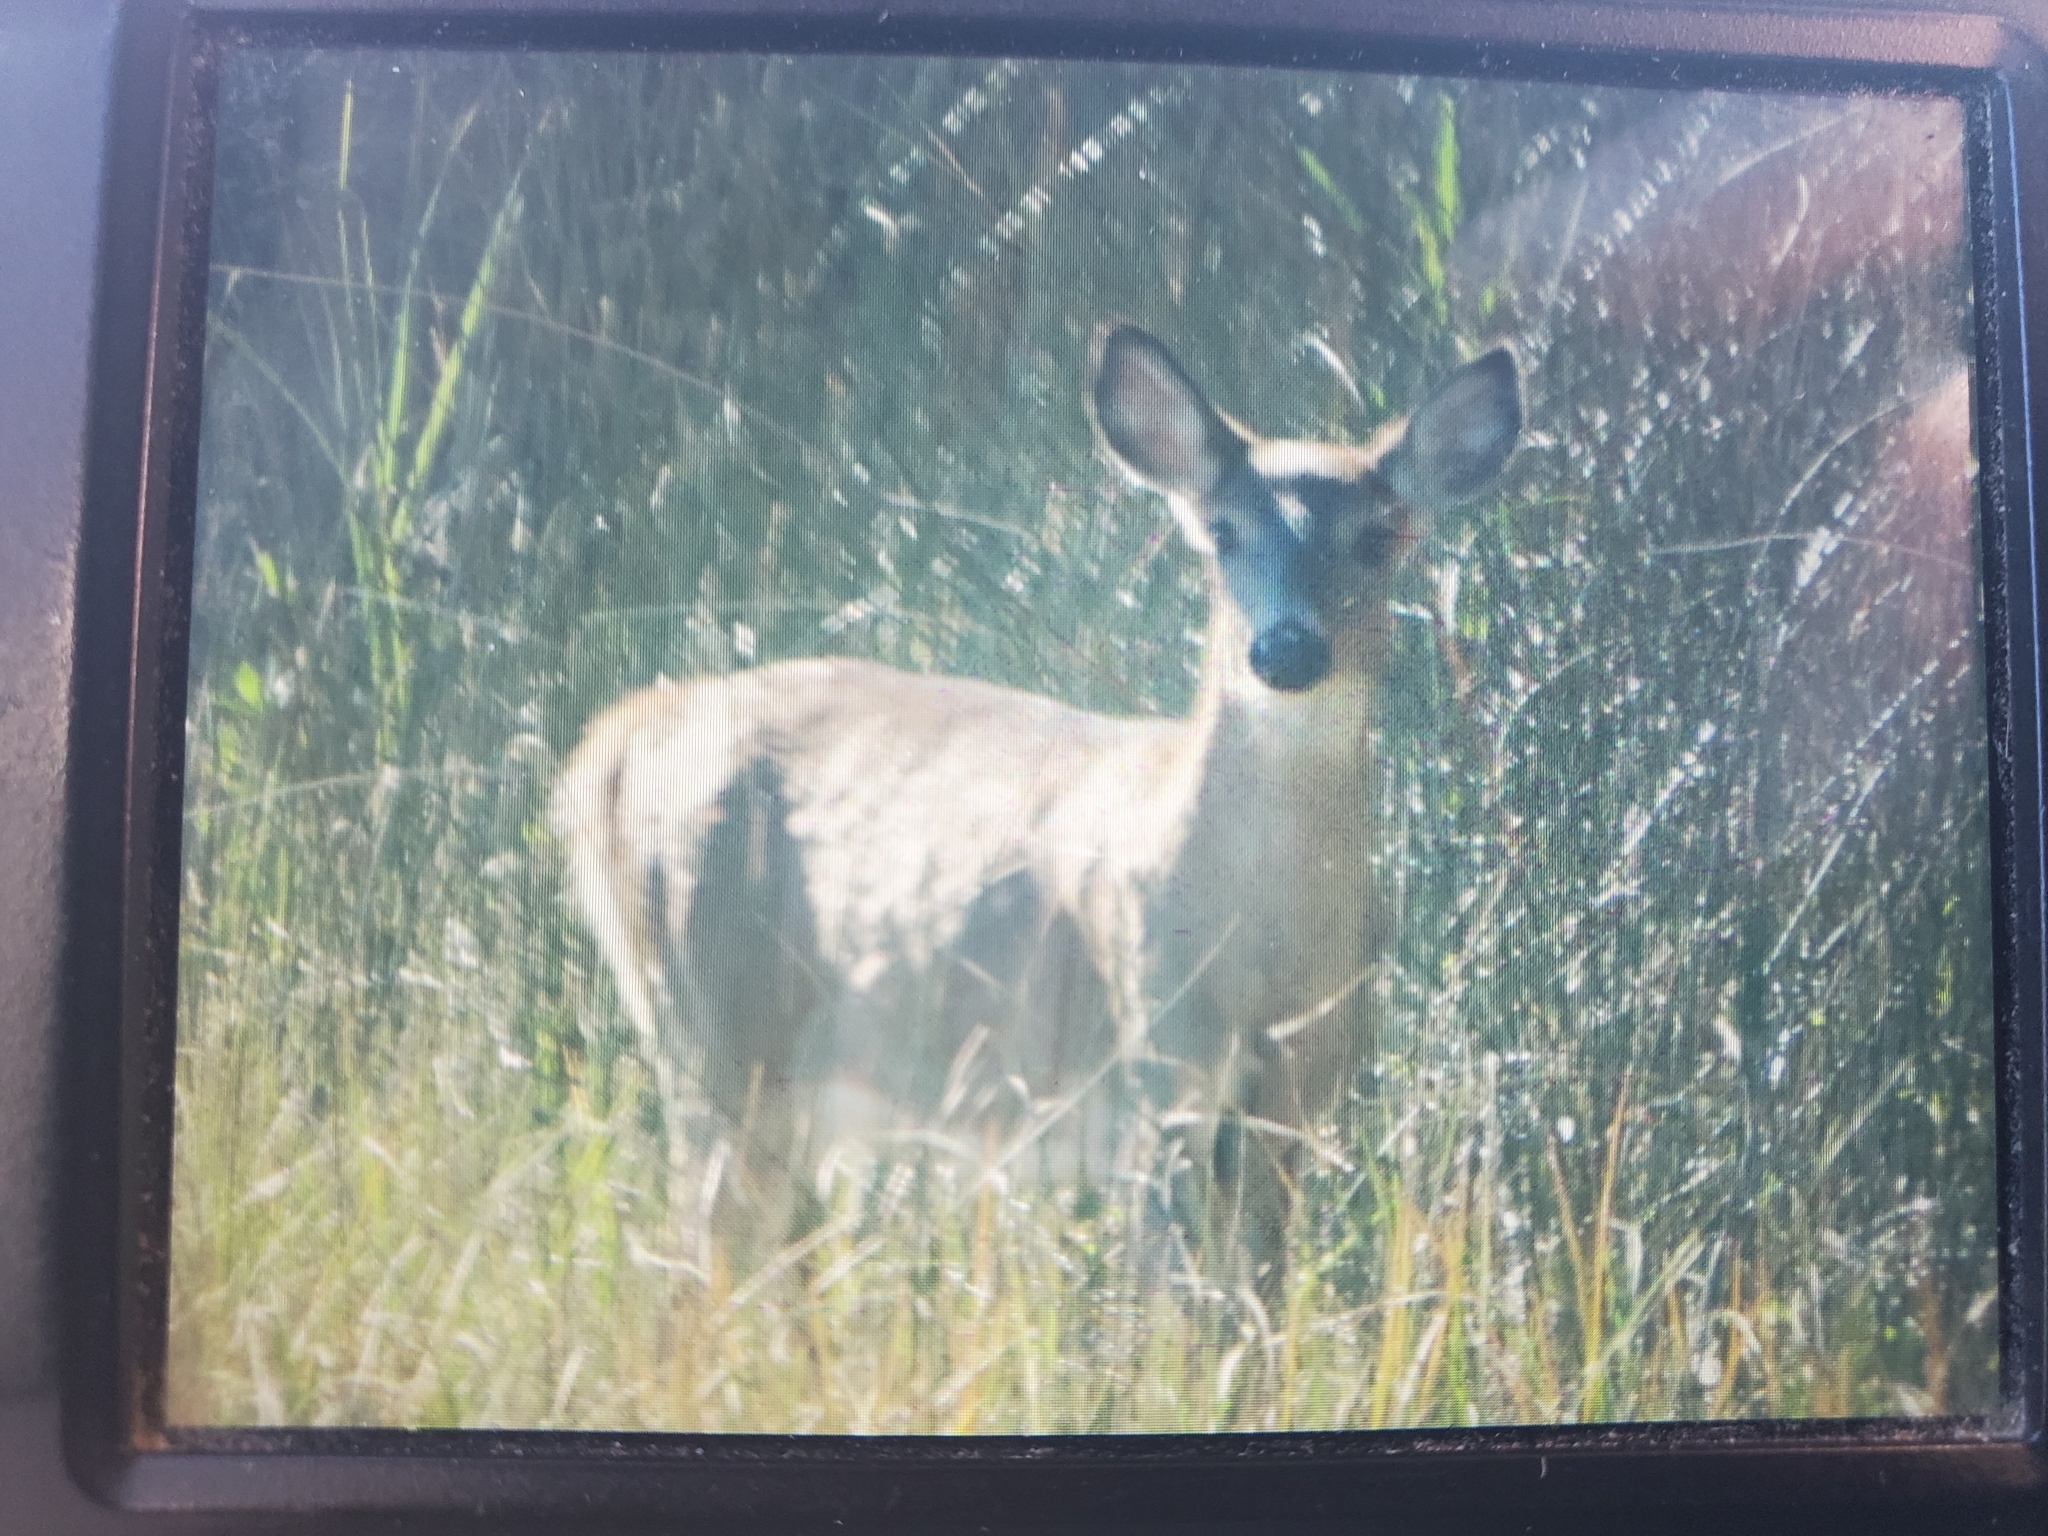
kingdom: Animalia
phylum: Chordata
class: Mammalia
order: Artiodactyla
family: Cervidae
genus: Odocoileus
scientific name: Odocoileus virginianus
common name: White-tailed deer
